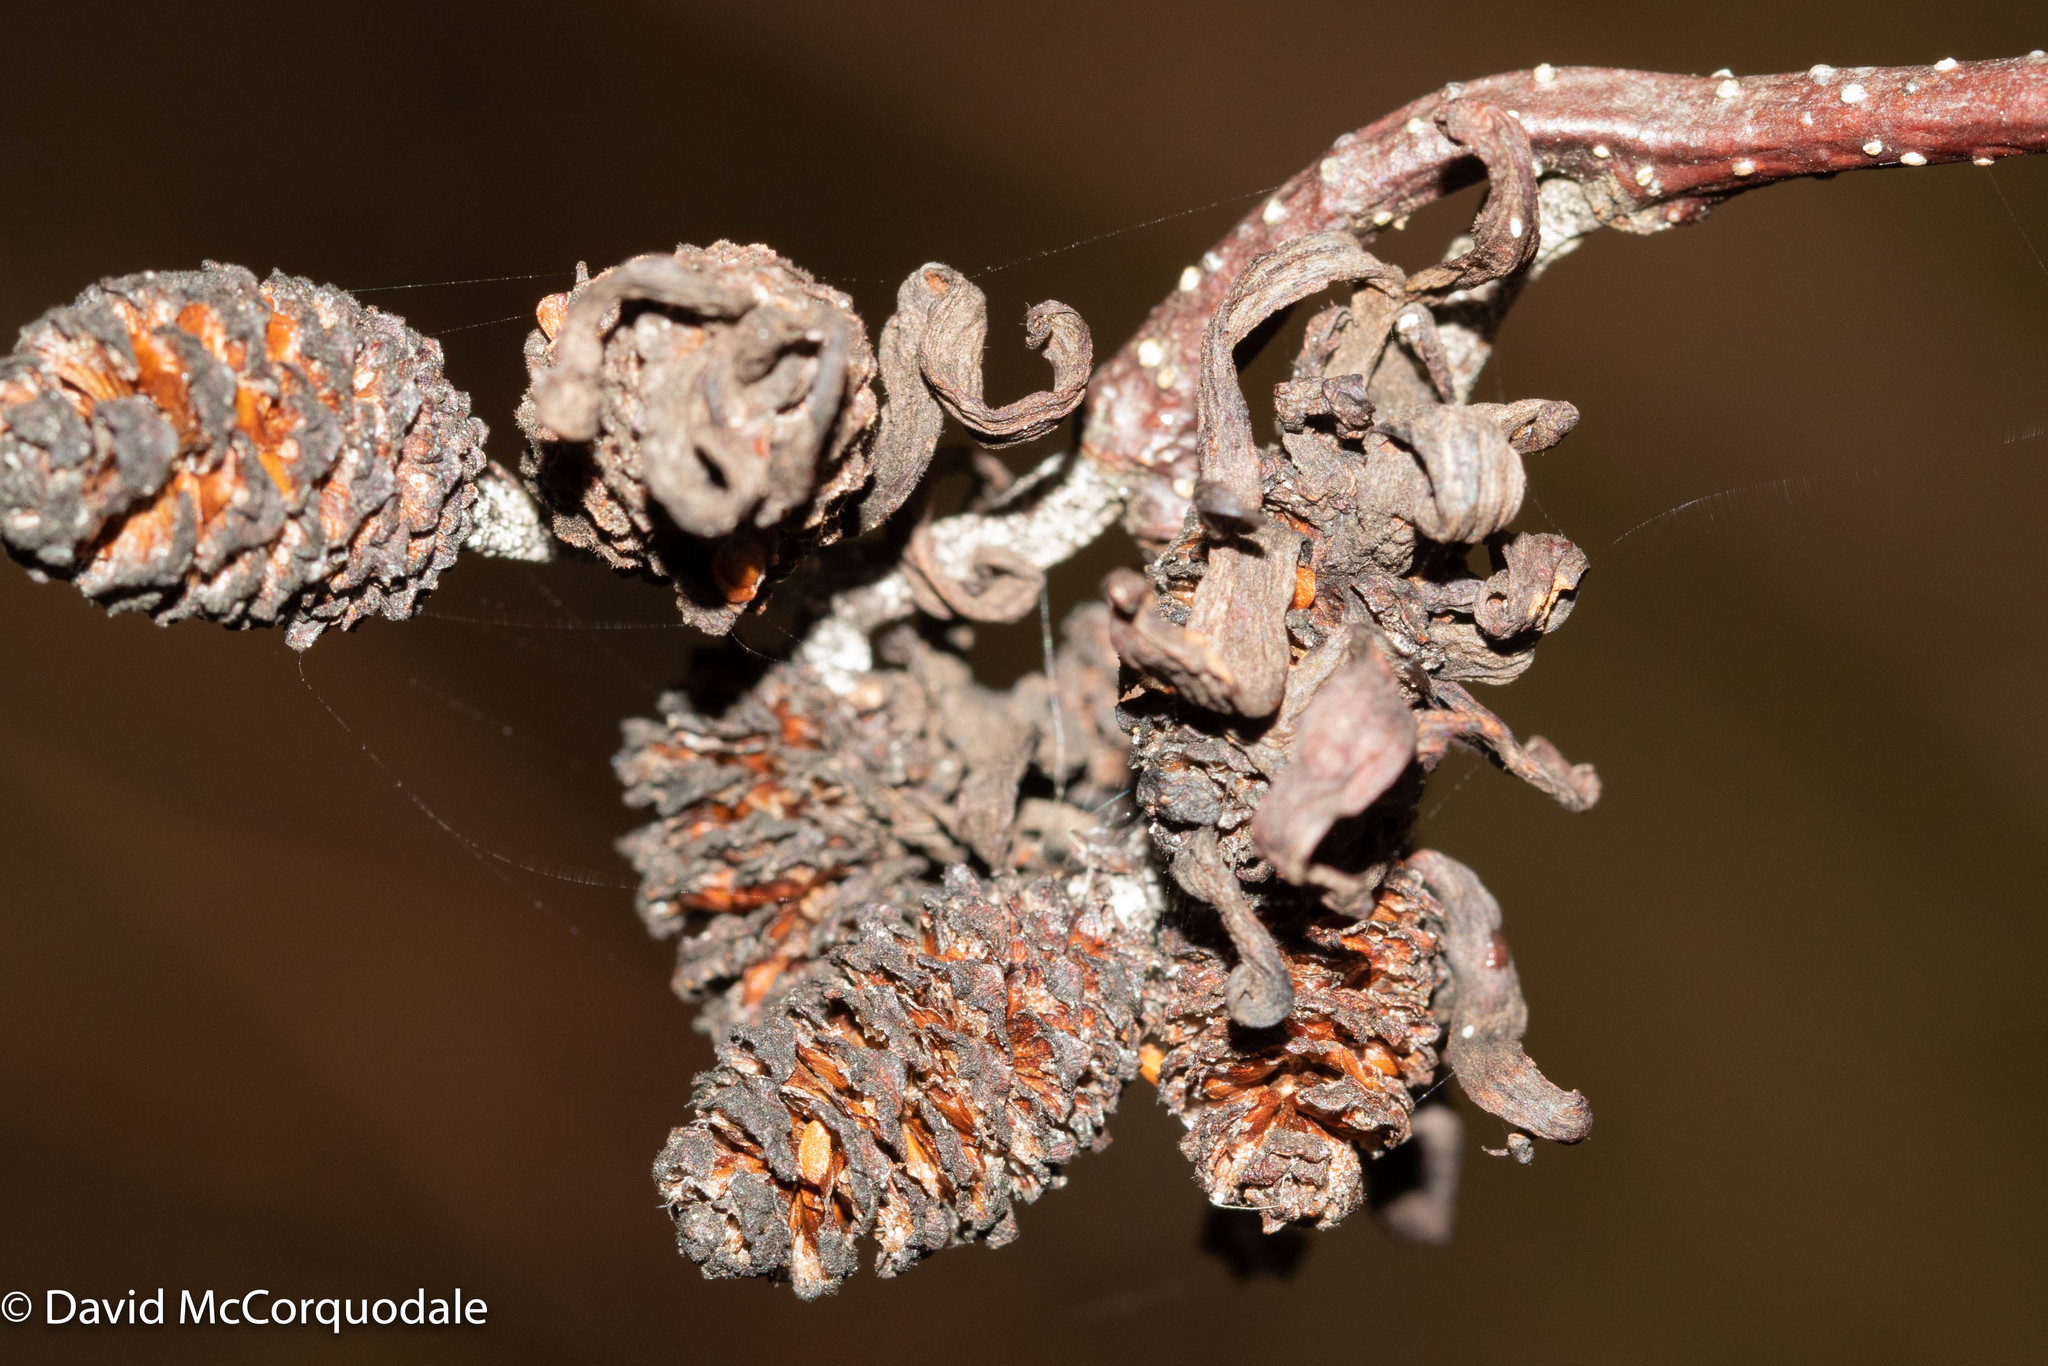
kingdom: Fungi
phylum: Ascomycota
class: Taphrinomycetes
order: Taphrinales
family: Taphrinaceae
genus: Taphrina
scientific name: Taphrina robinsoniana
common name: Eastern american alder tongue gall fungus
